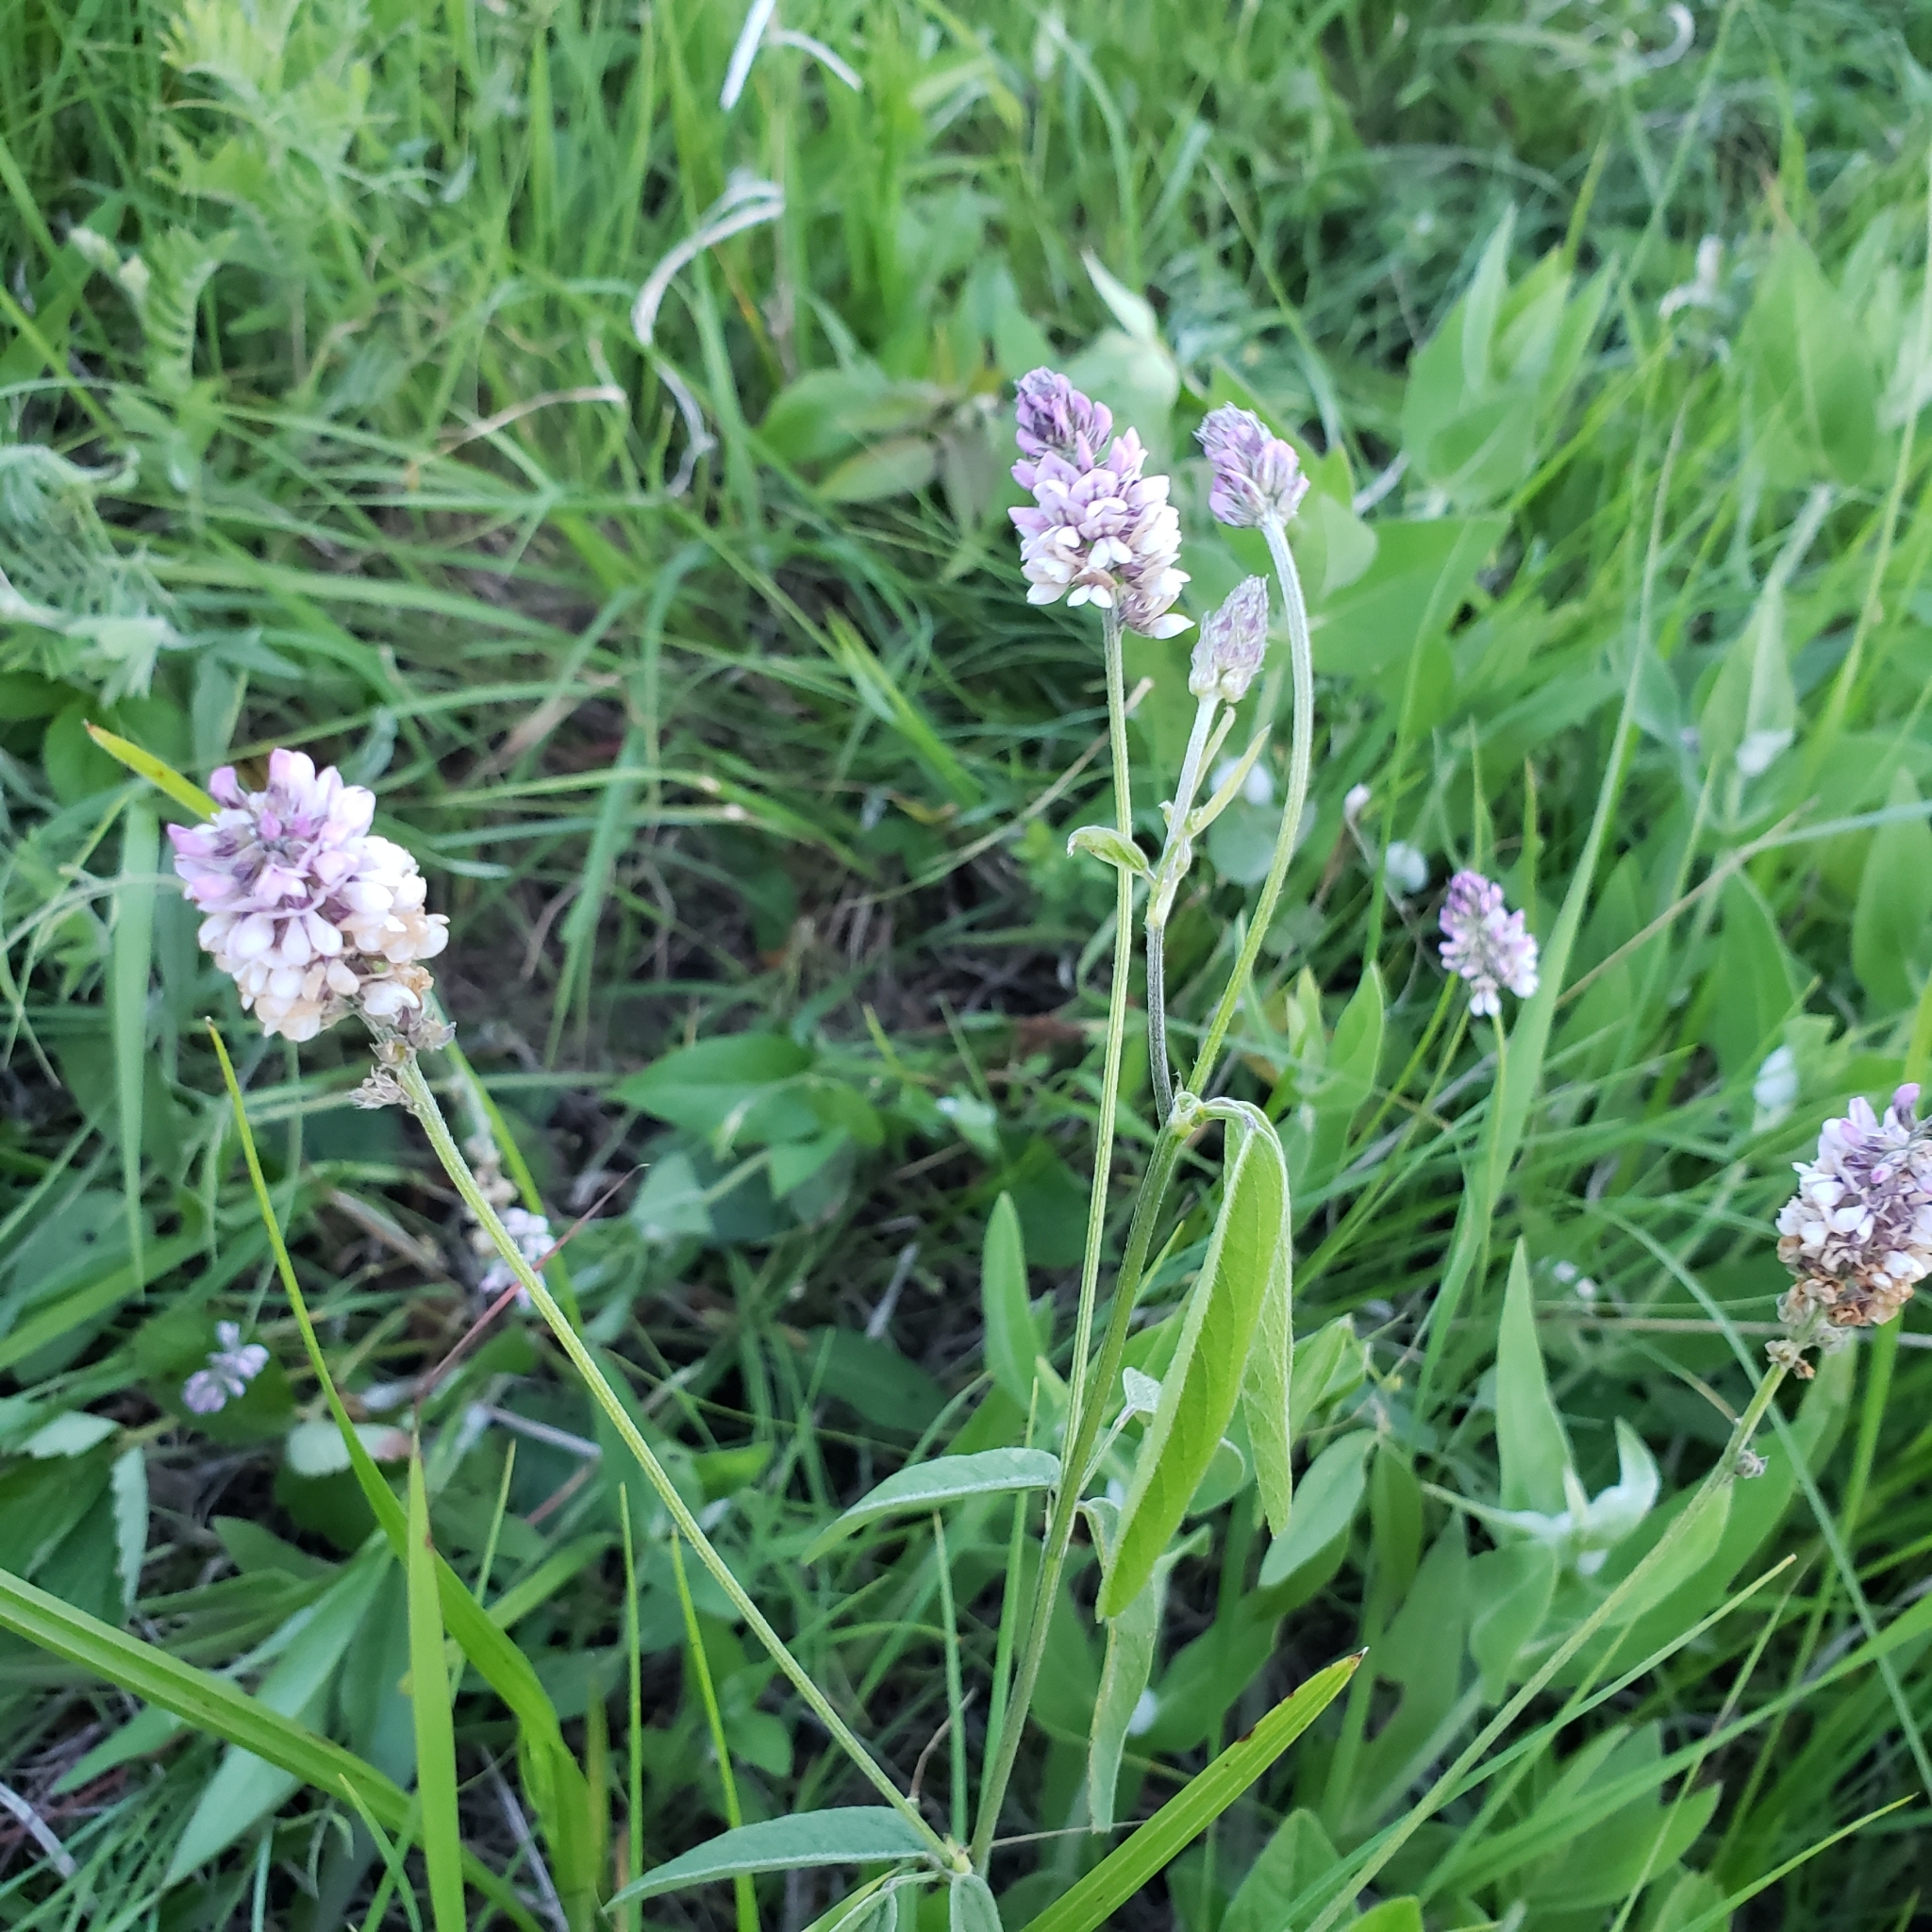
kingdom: Plantae
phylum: Tracheophyta
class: Magnoliopsida
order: Fabales
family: Fabaceae
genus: Orbexilum
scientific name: Orbexilum pedunculatum
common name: Sampson's snakeroot
